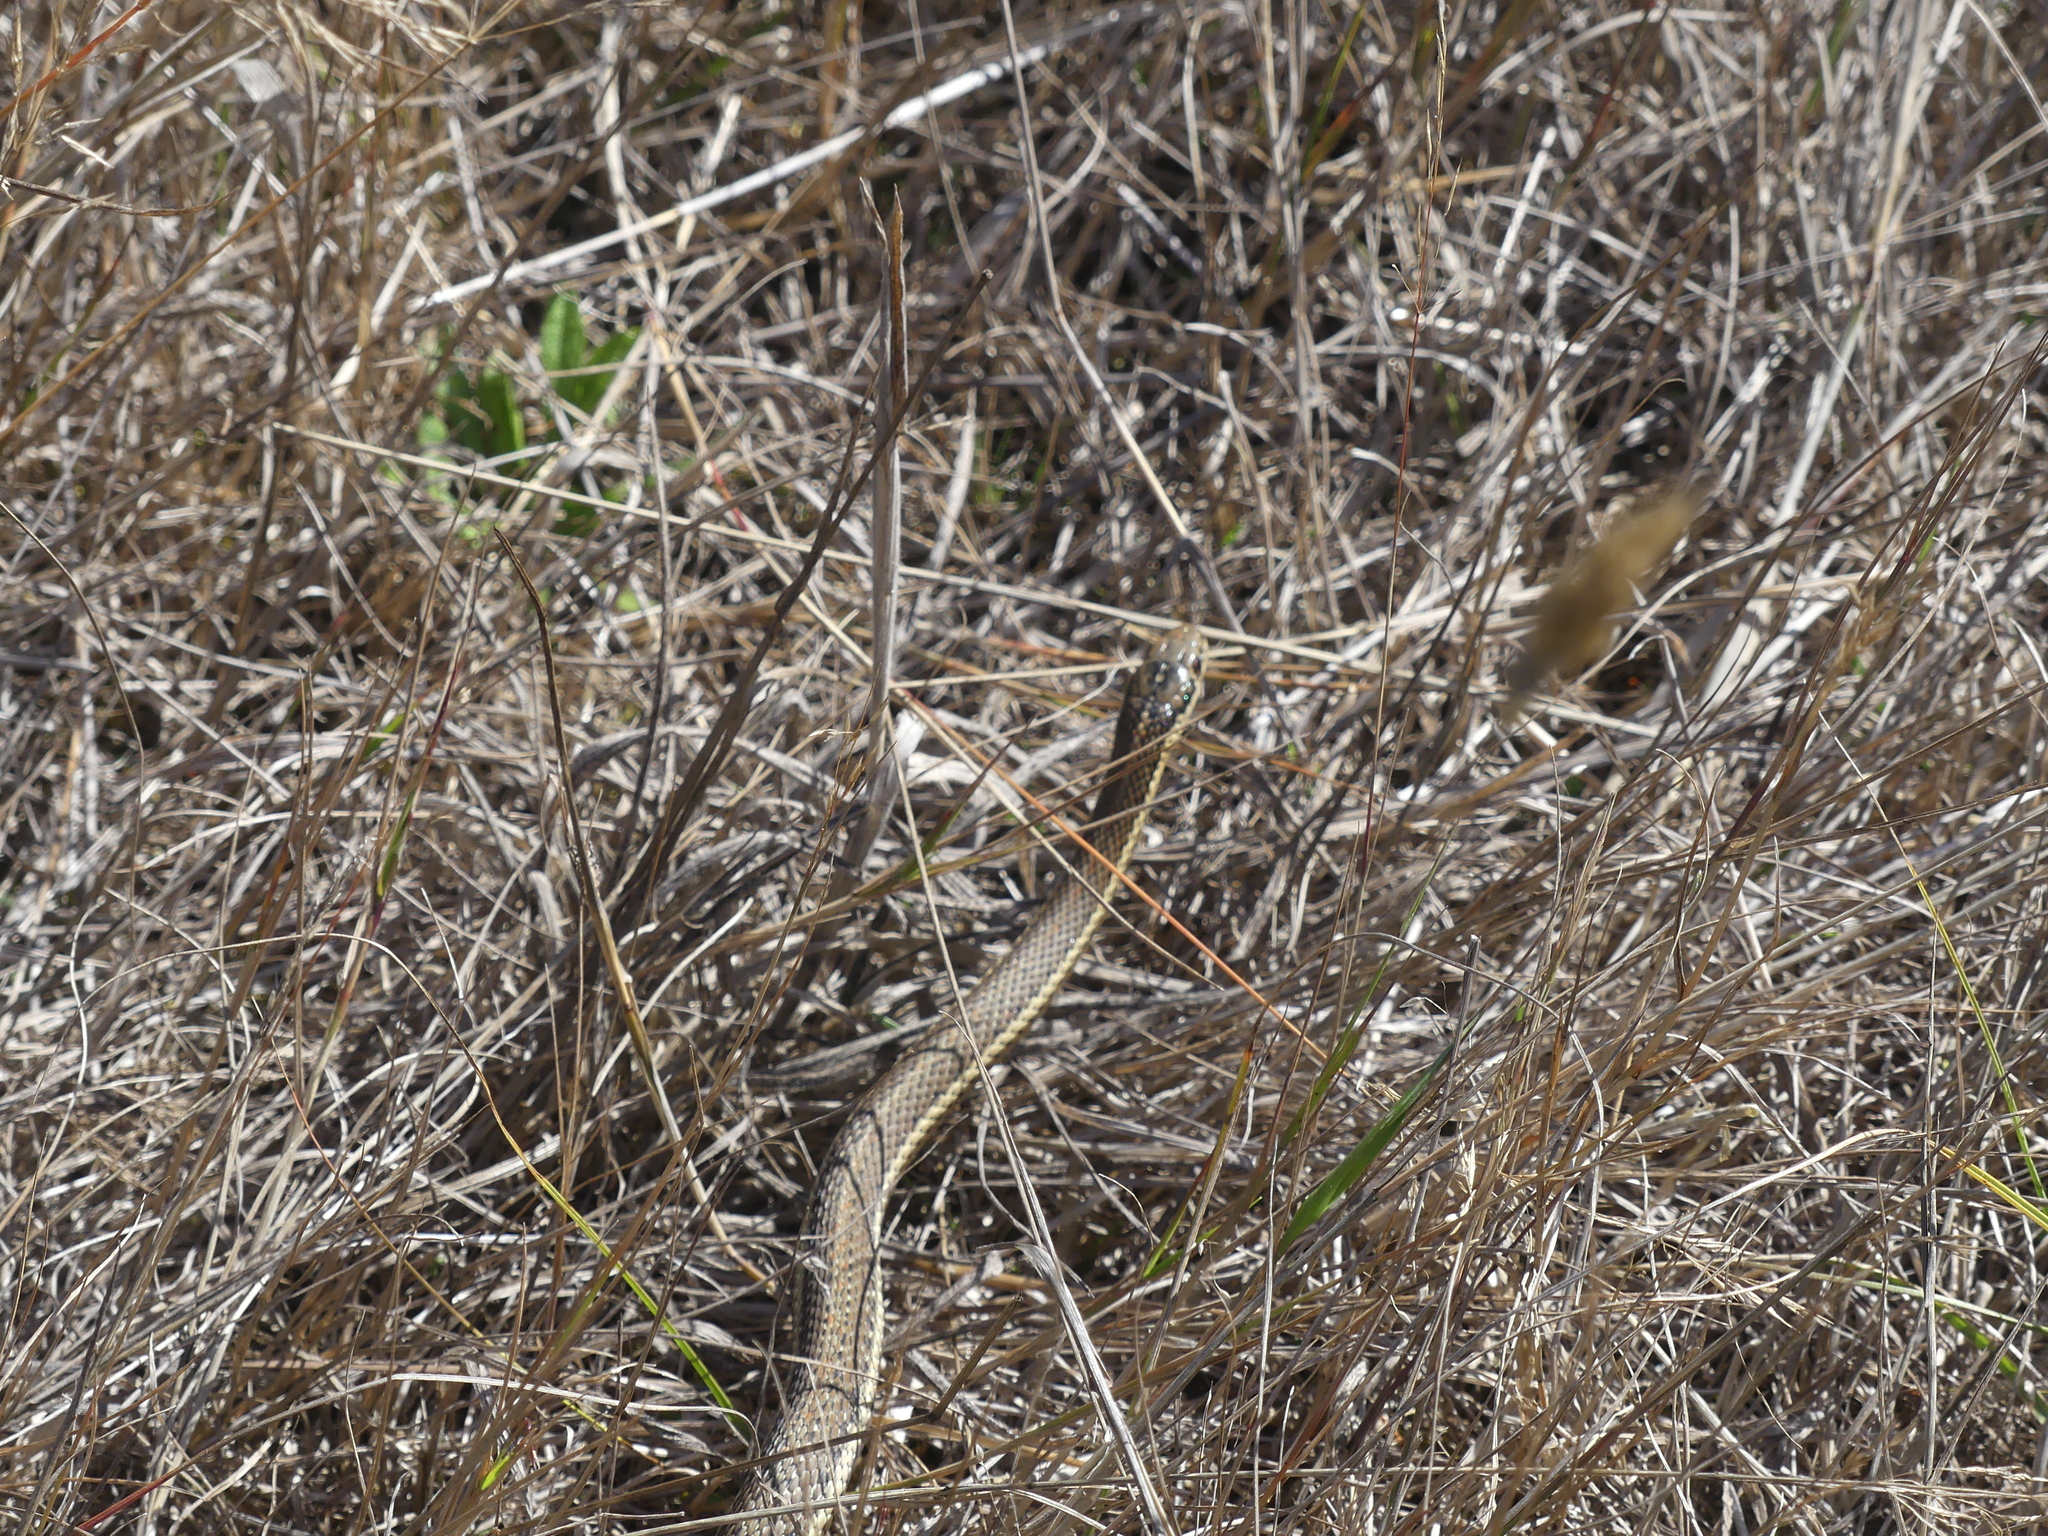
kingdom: Animalia
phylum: Chordata
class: Squamata
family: Colubridae
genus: Thamnophis
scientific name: Thamnophis ordinoides
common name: Northwestern garter snake
